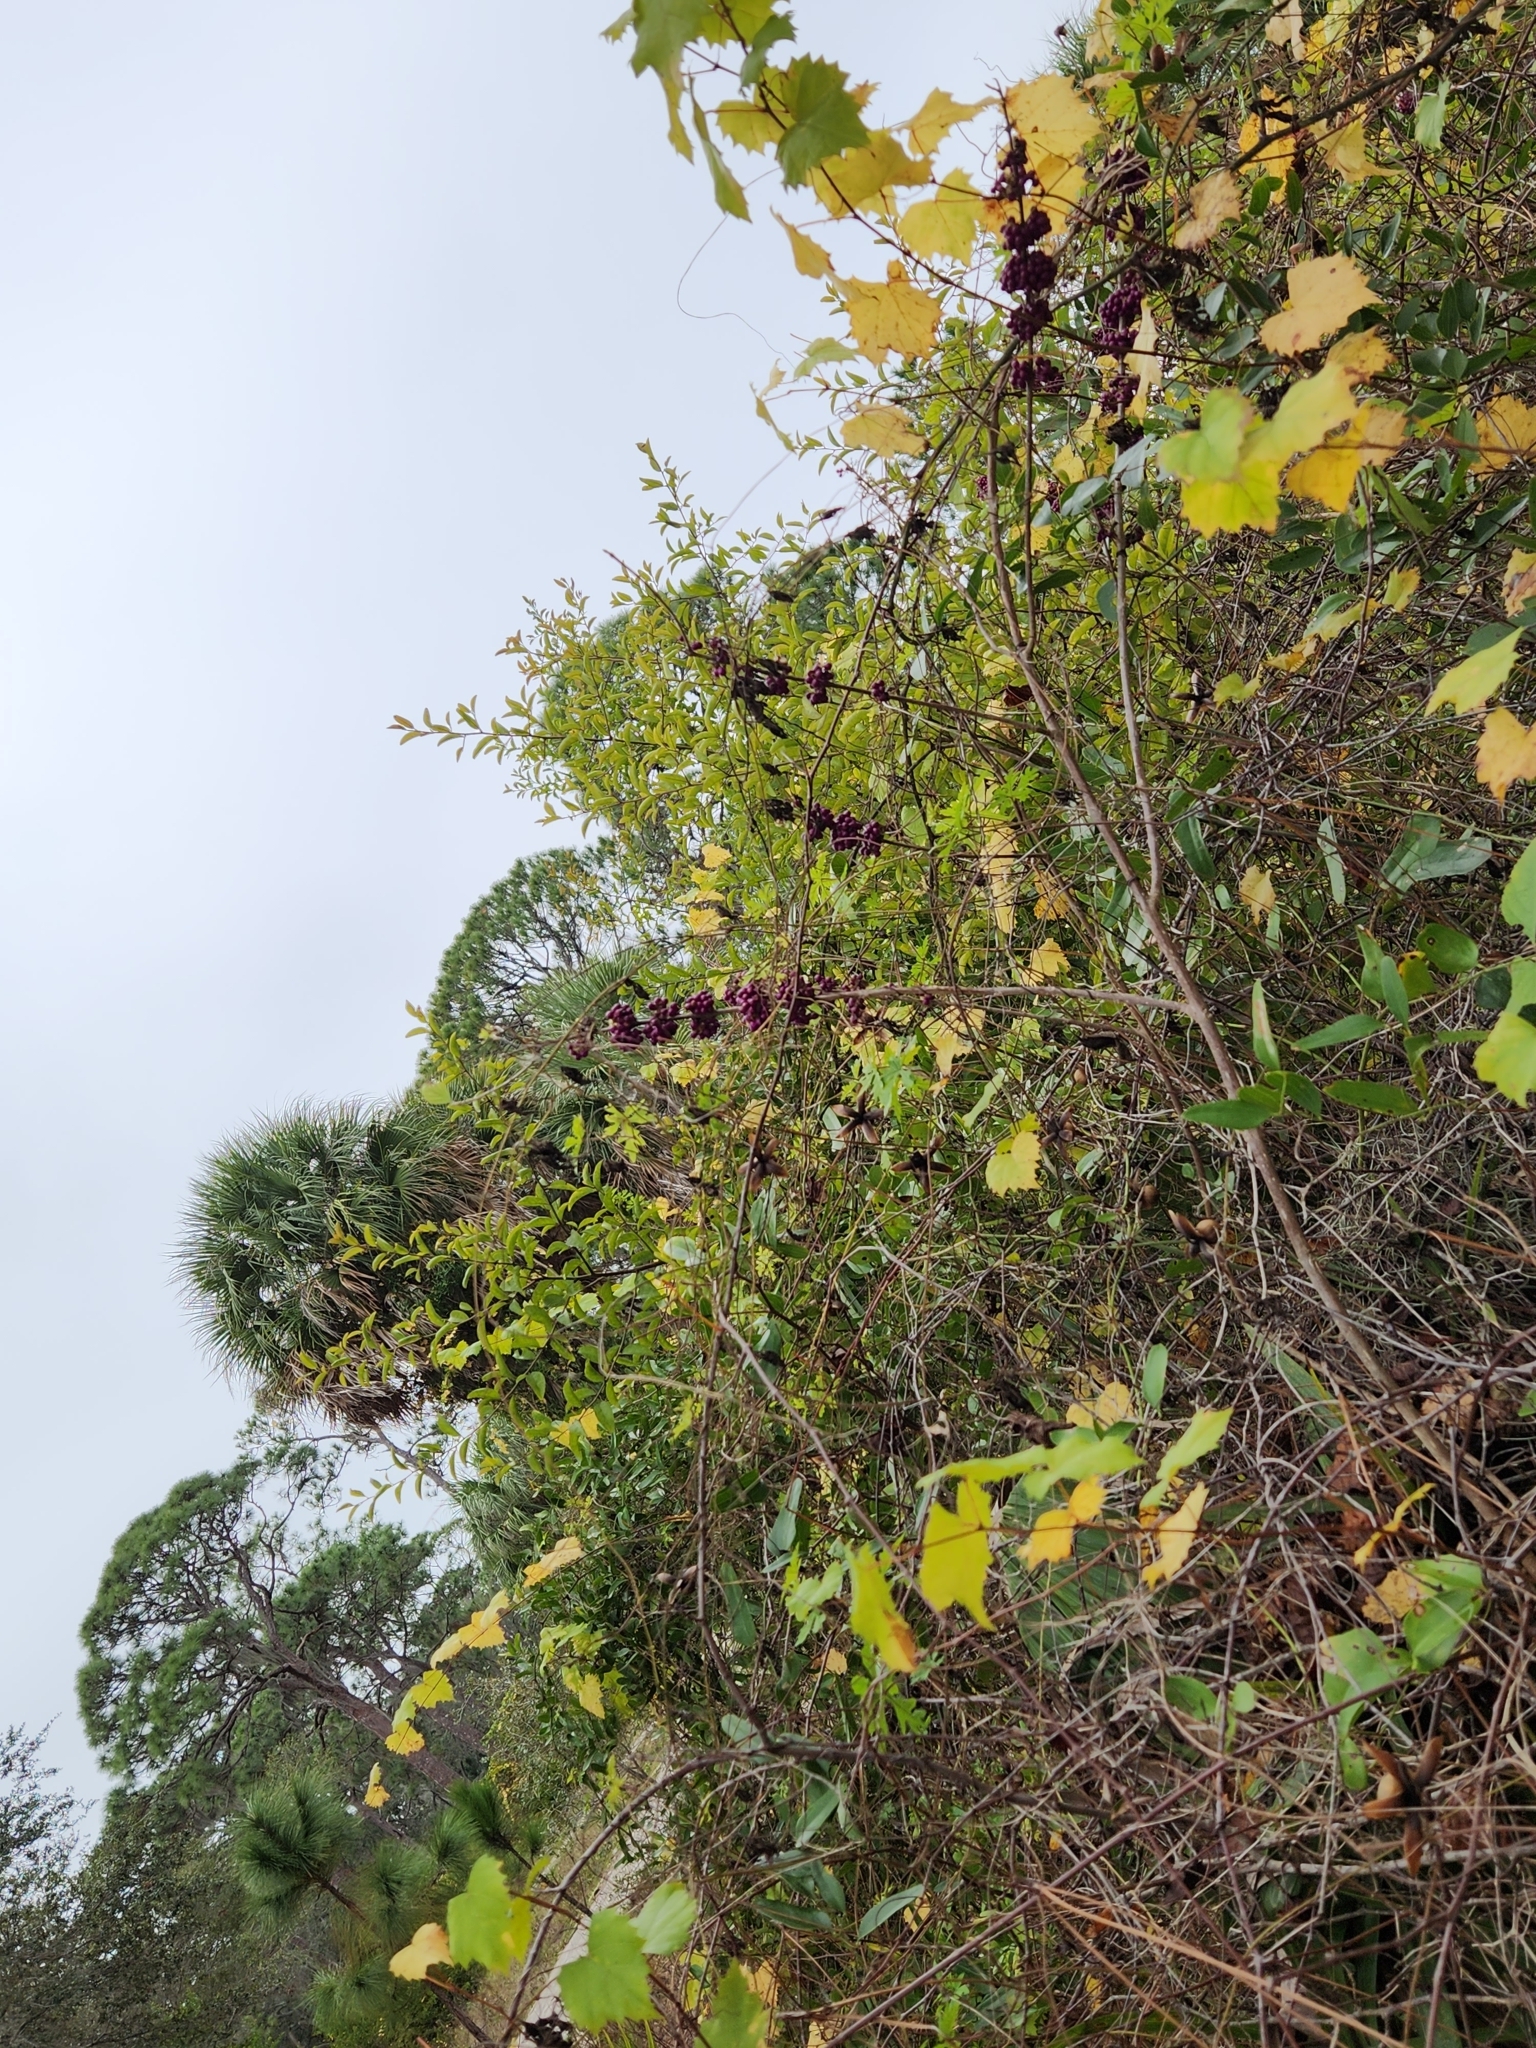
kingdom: Plantae
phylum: Tracheophyta
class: Magnoliopsida
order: Lamiales
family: Lamiaceae
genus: Callicarpa
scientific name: Callicarpa americana
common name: American beautyberry
